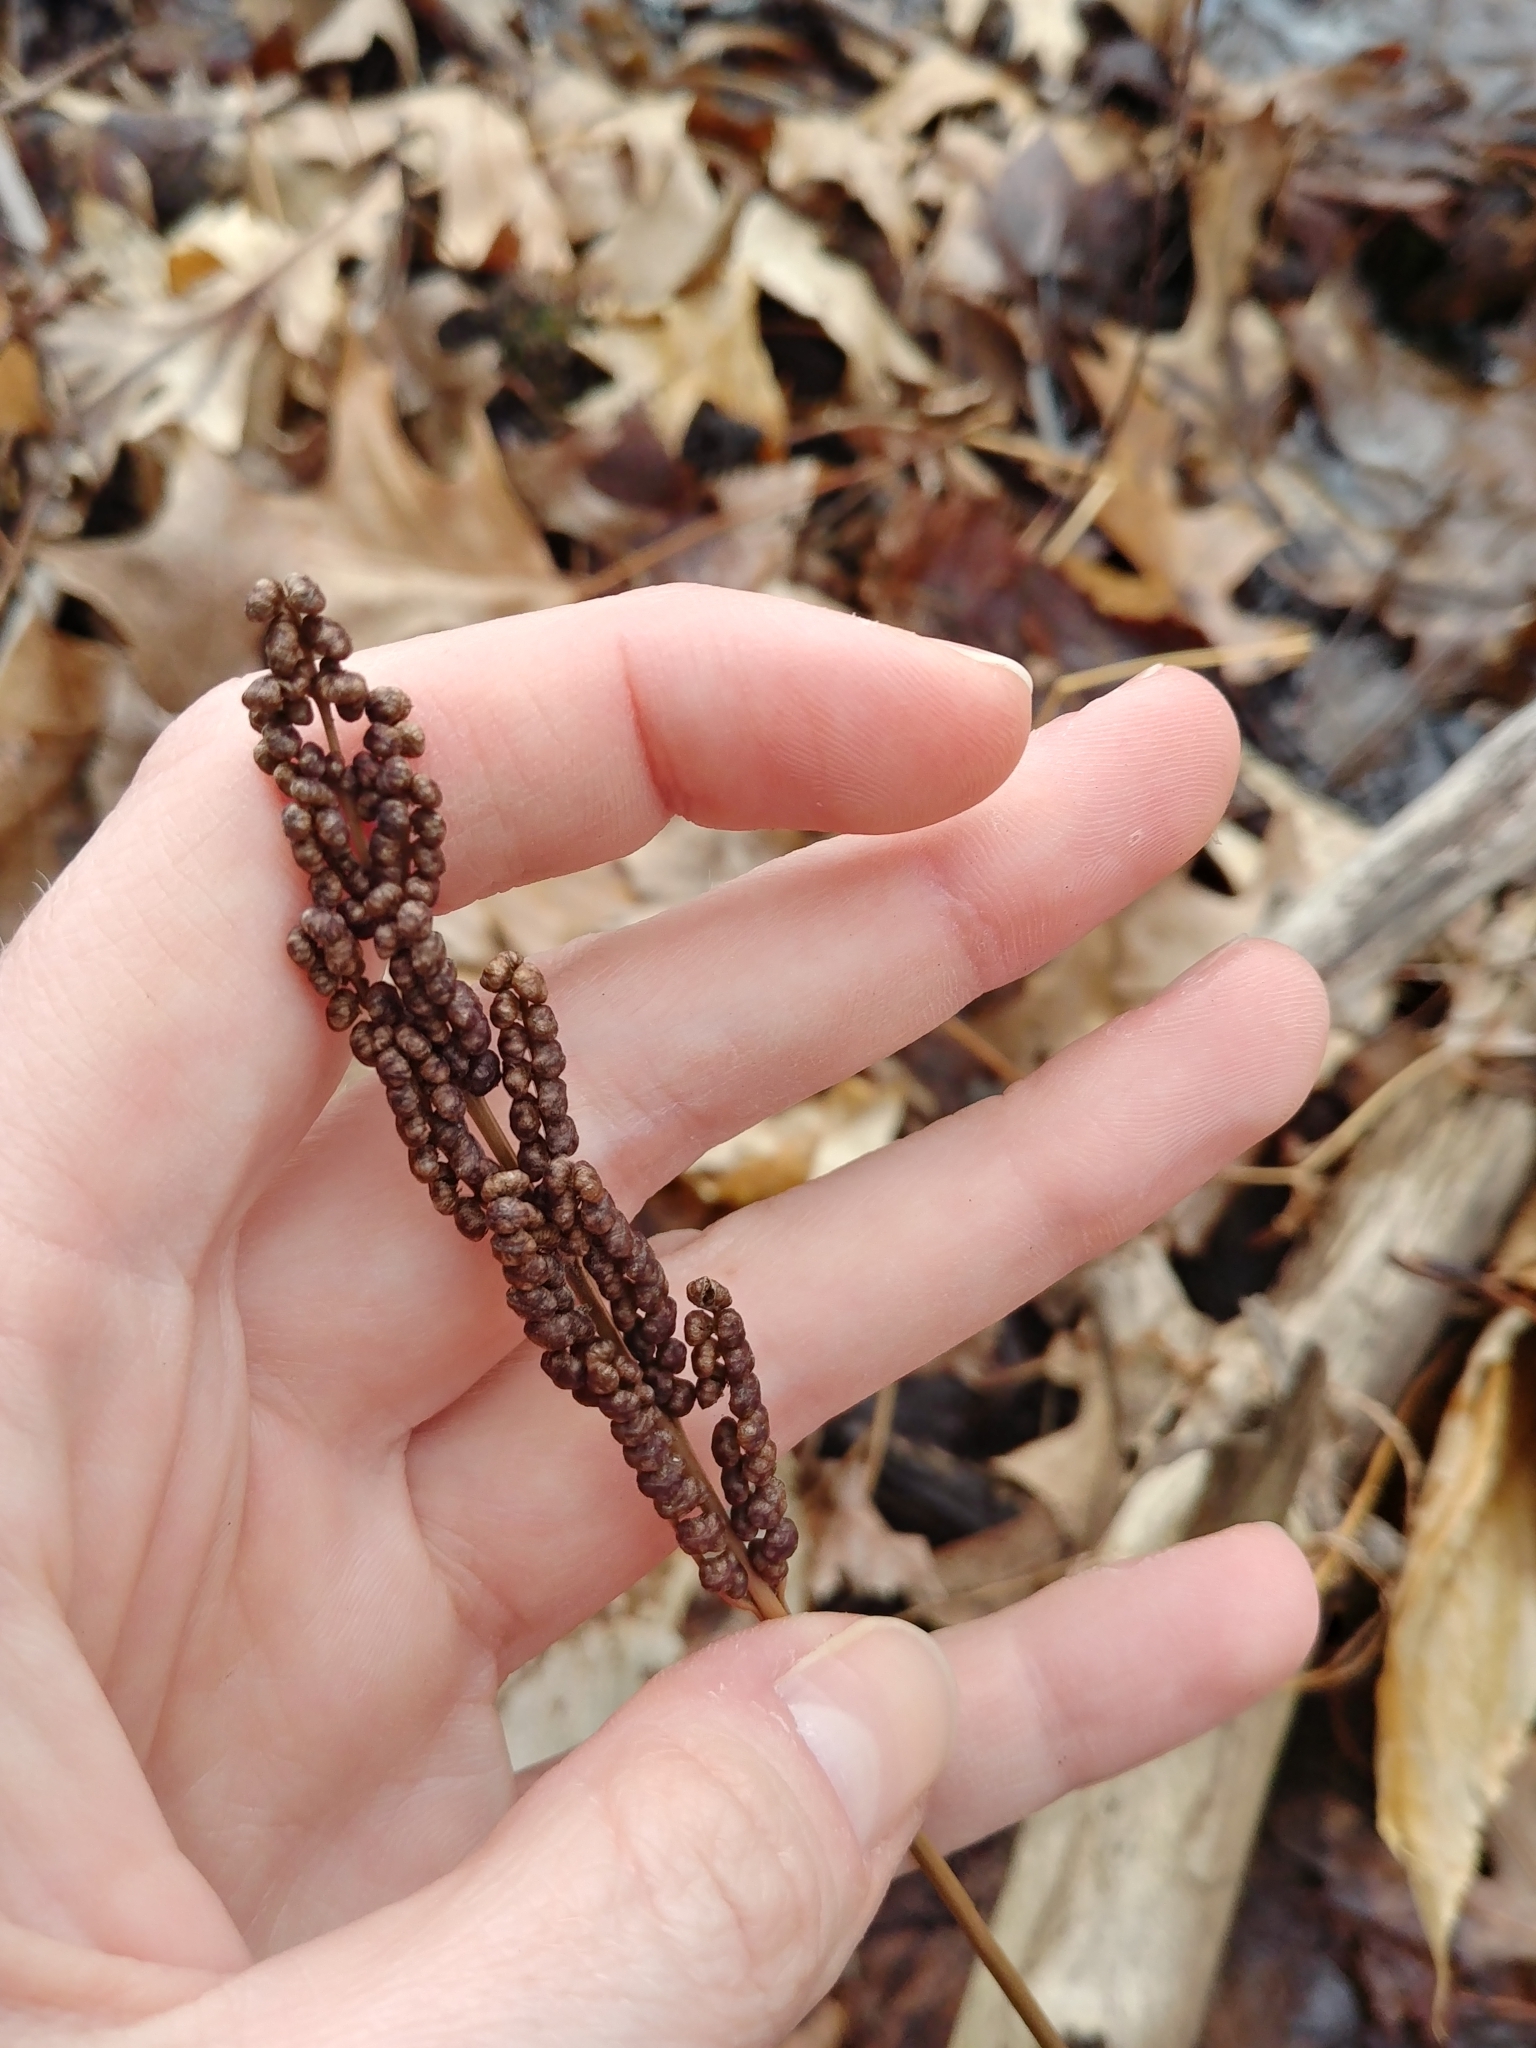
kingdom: Plantae
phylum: Tracheophyta
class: Polypodiopsida
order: Polypodiales
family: Onocleaceae
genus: Onoclea
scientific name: Onoclea sensibilis
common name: Sensitive fern
